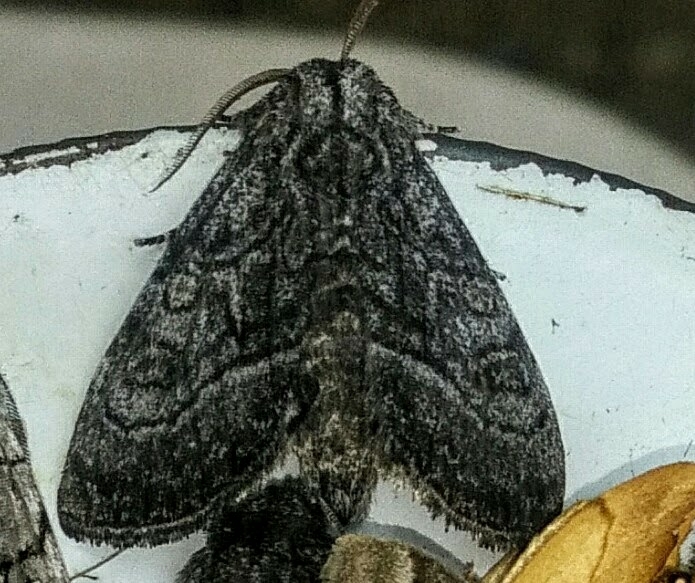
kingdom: Animalia
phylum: Arthropoda
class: Insecta
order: Lepidoptera
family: Noctuidae
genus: Raphia
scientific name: Raphia frater
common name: Brother
